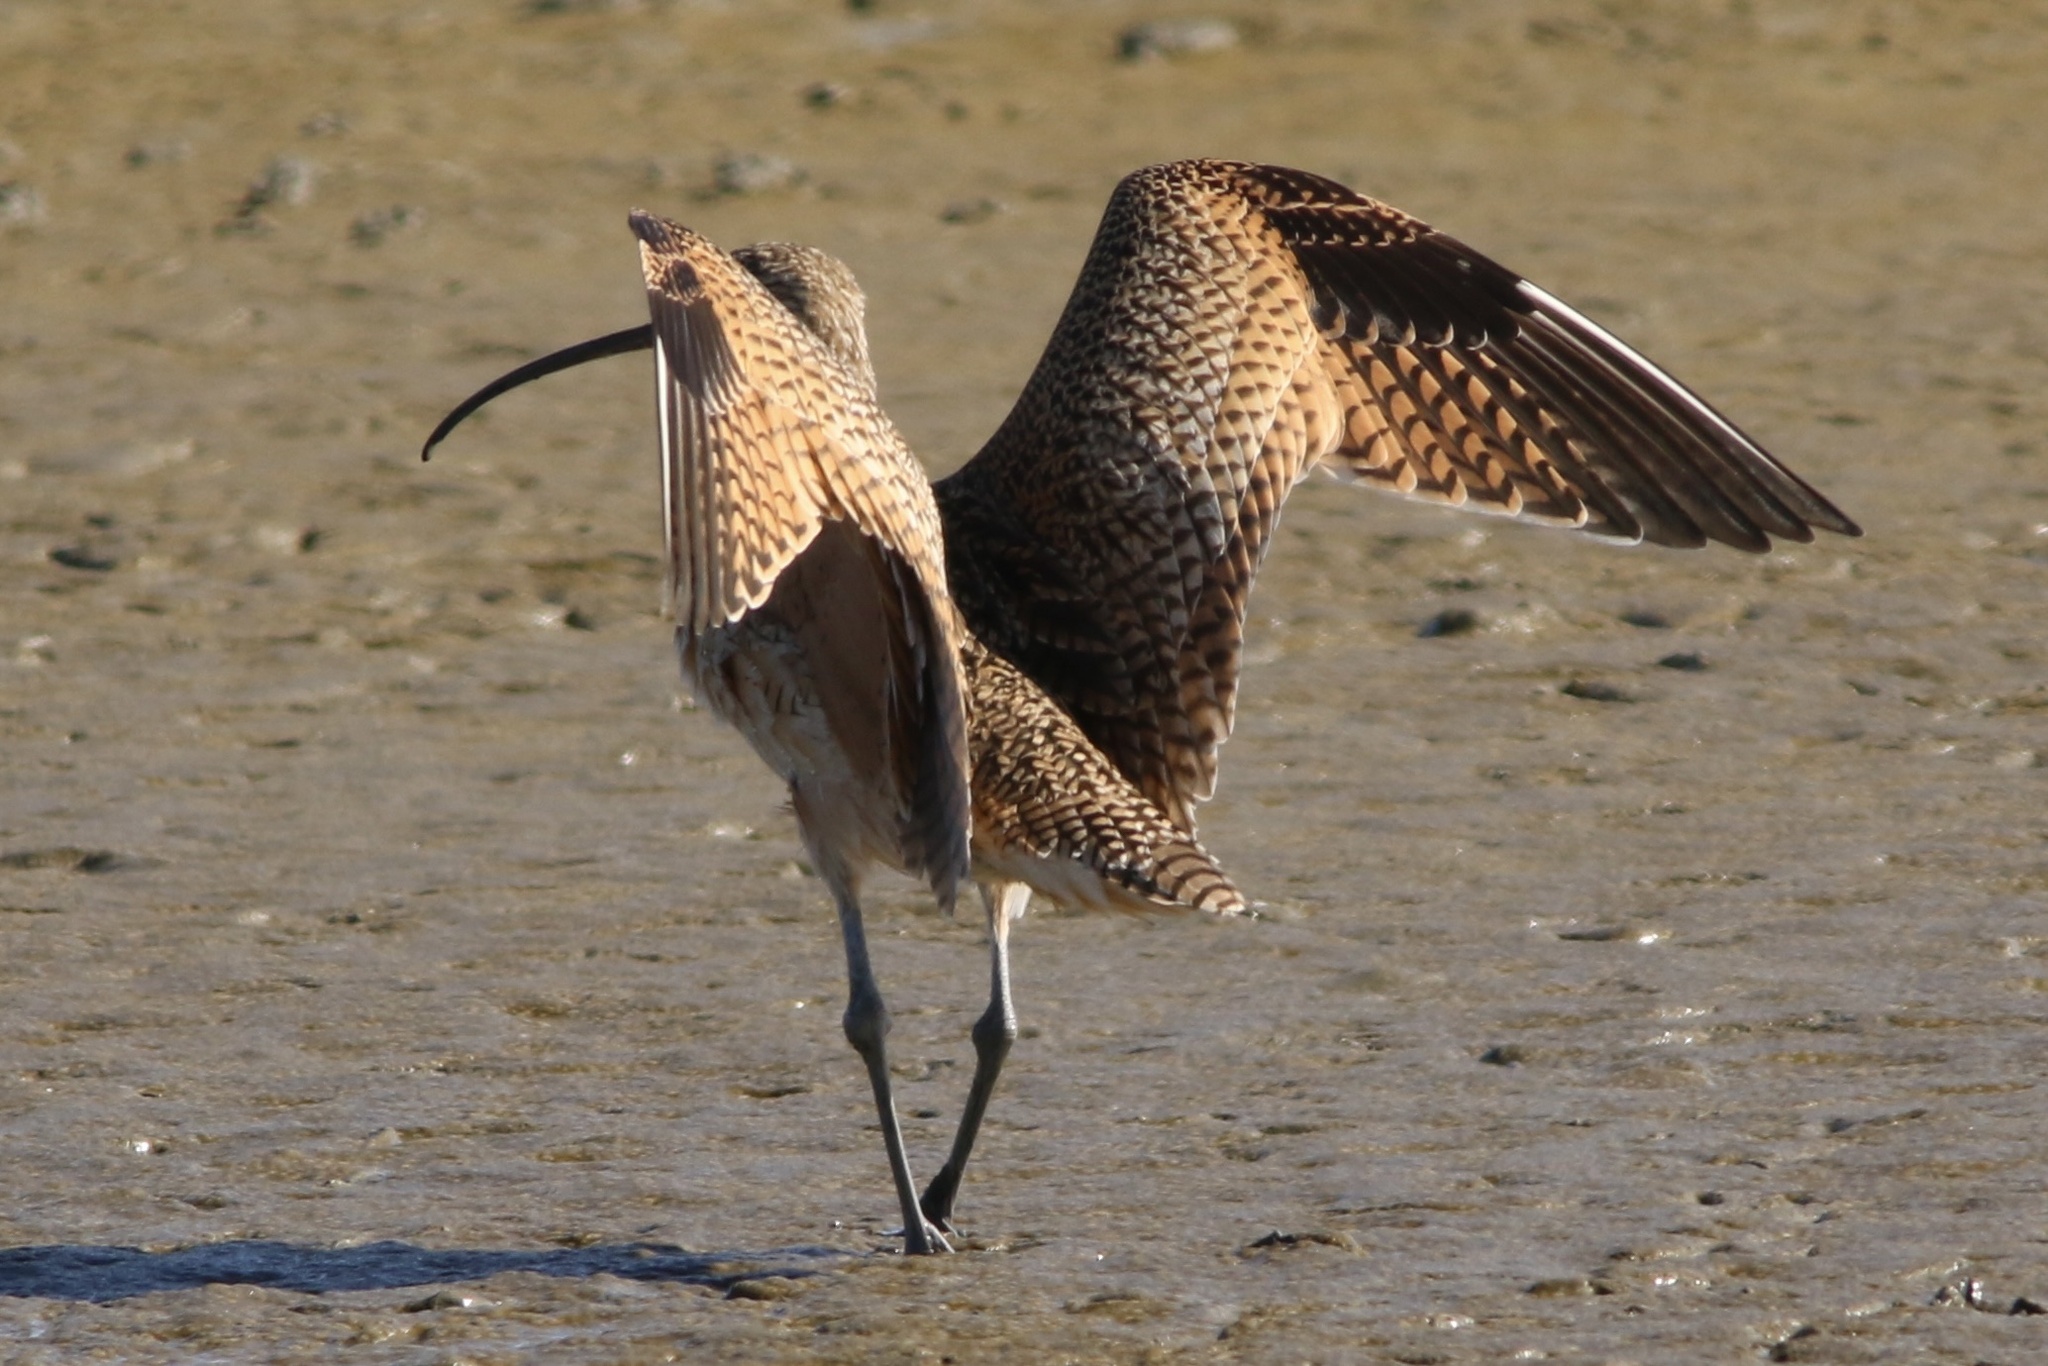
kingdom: Animalia
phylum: Chordata
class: Aves
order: Charadriiformes
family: Scolopacidae
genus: Numenius
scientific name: Numenius americanus
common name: Long-billed curlew
